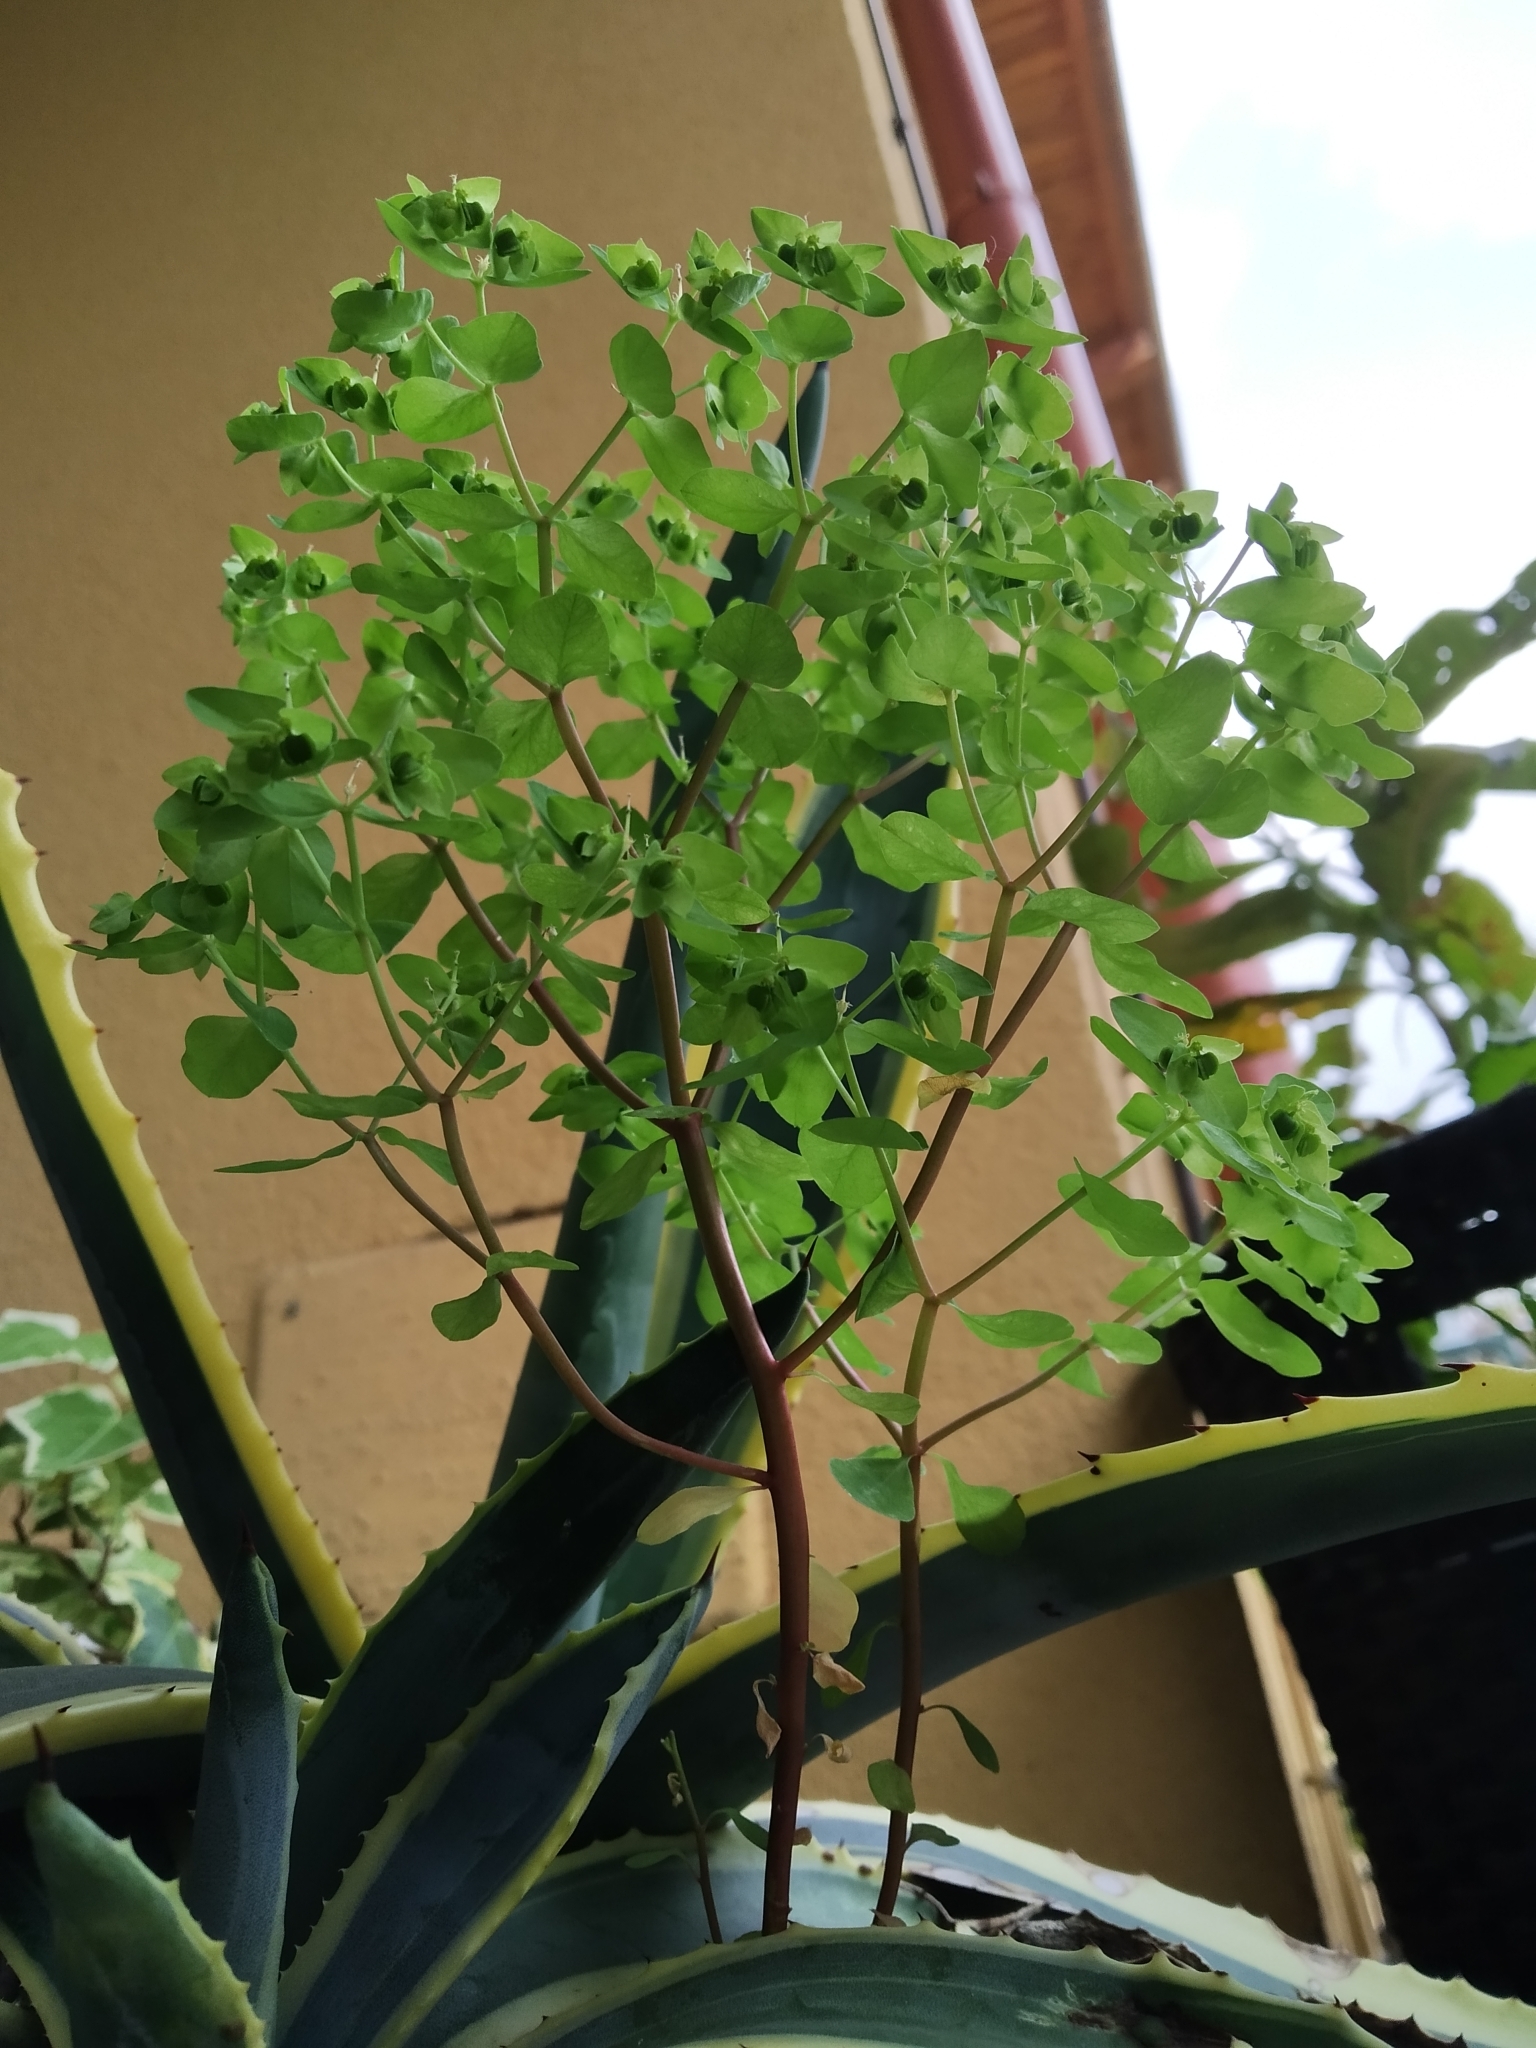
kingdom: Plantae
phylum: Tracheophyta
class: Magnoliopsida
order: Malpighiales
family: Euphorbiaceae
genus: Euphorbia
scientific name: Euphorbia peplus
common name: Petty spurge
